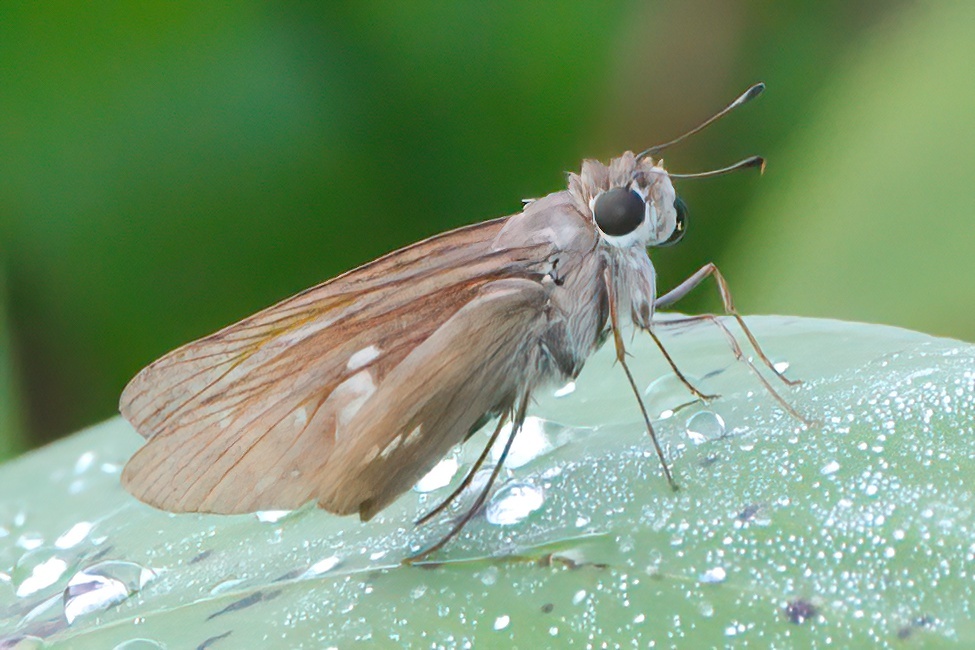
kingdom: Animalia
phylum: Arthropoda
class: Insecta
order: Lepidoptera
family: Hesperiidae
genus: Calpodes
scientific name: Calpodes ethlius
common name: Brazilian skipper
